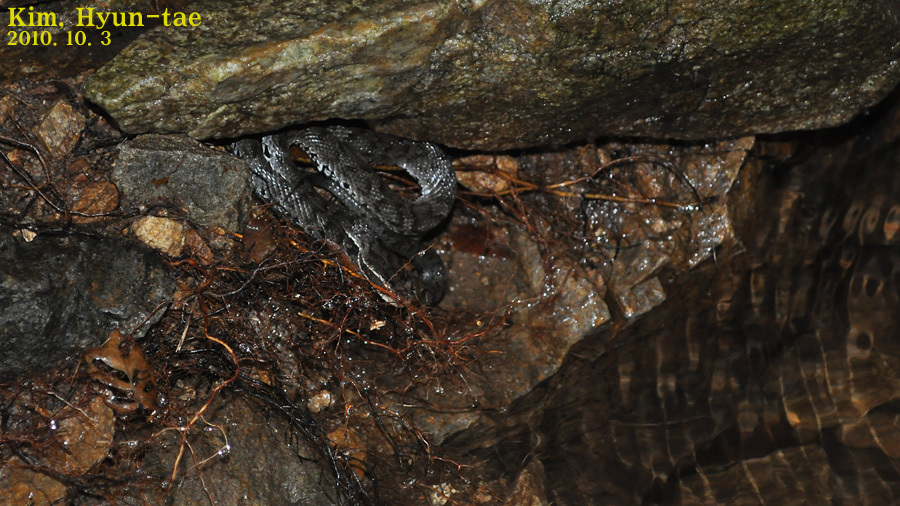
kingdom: Animalia
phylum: Chordata
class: Squamata
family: Viperidae
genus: Gloydius
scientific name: Gloydius ussuriensis
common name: Ussuri mamushi
